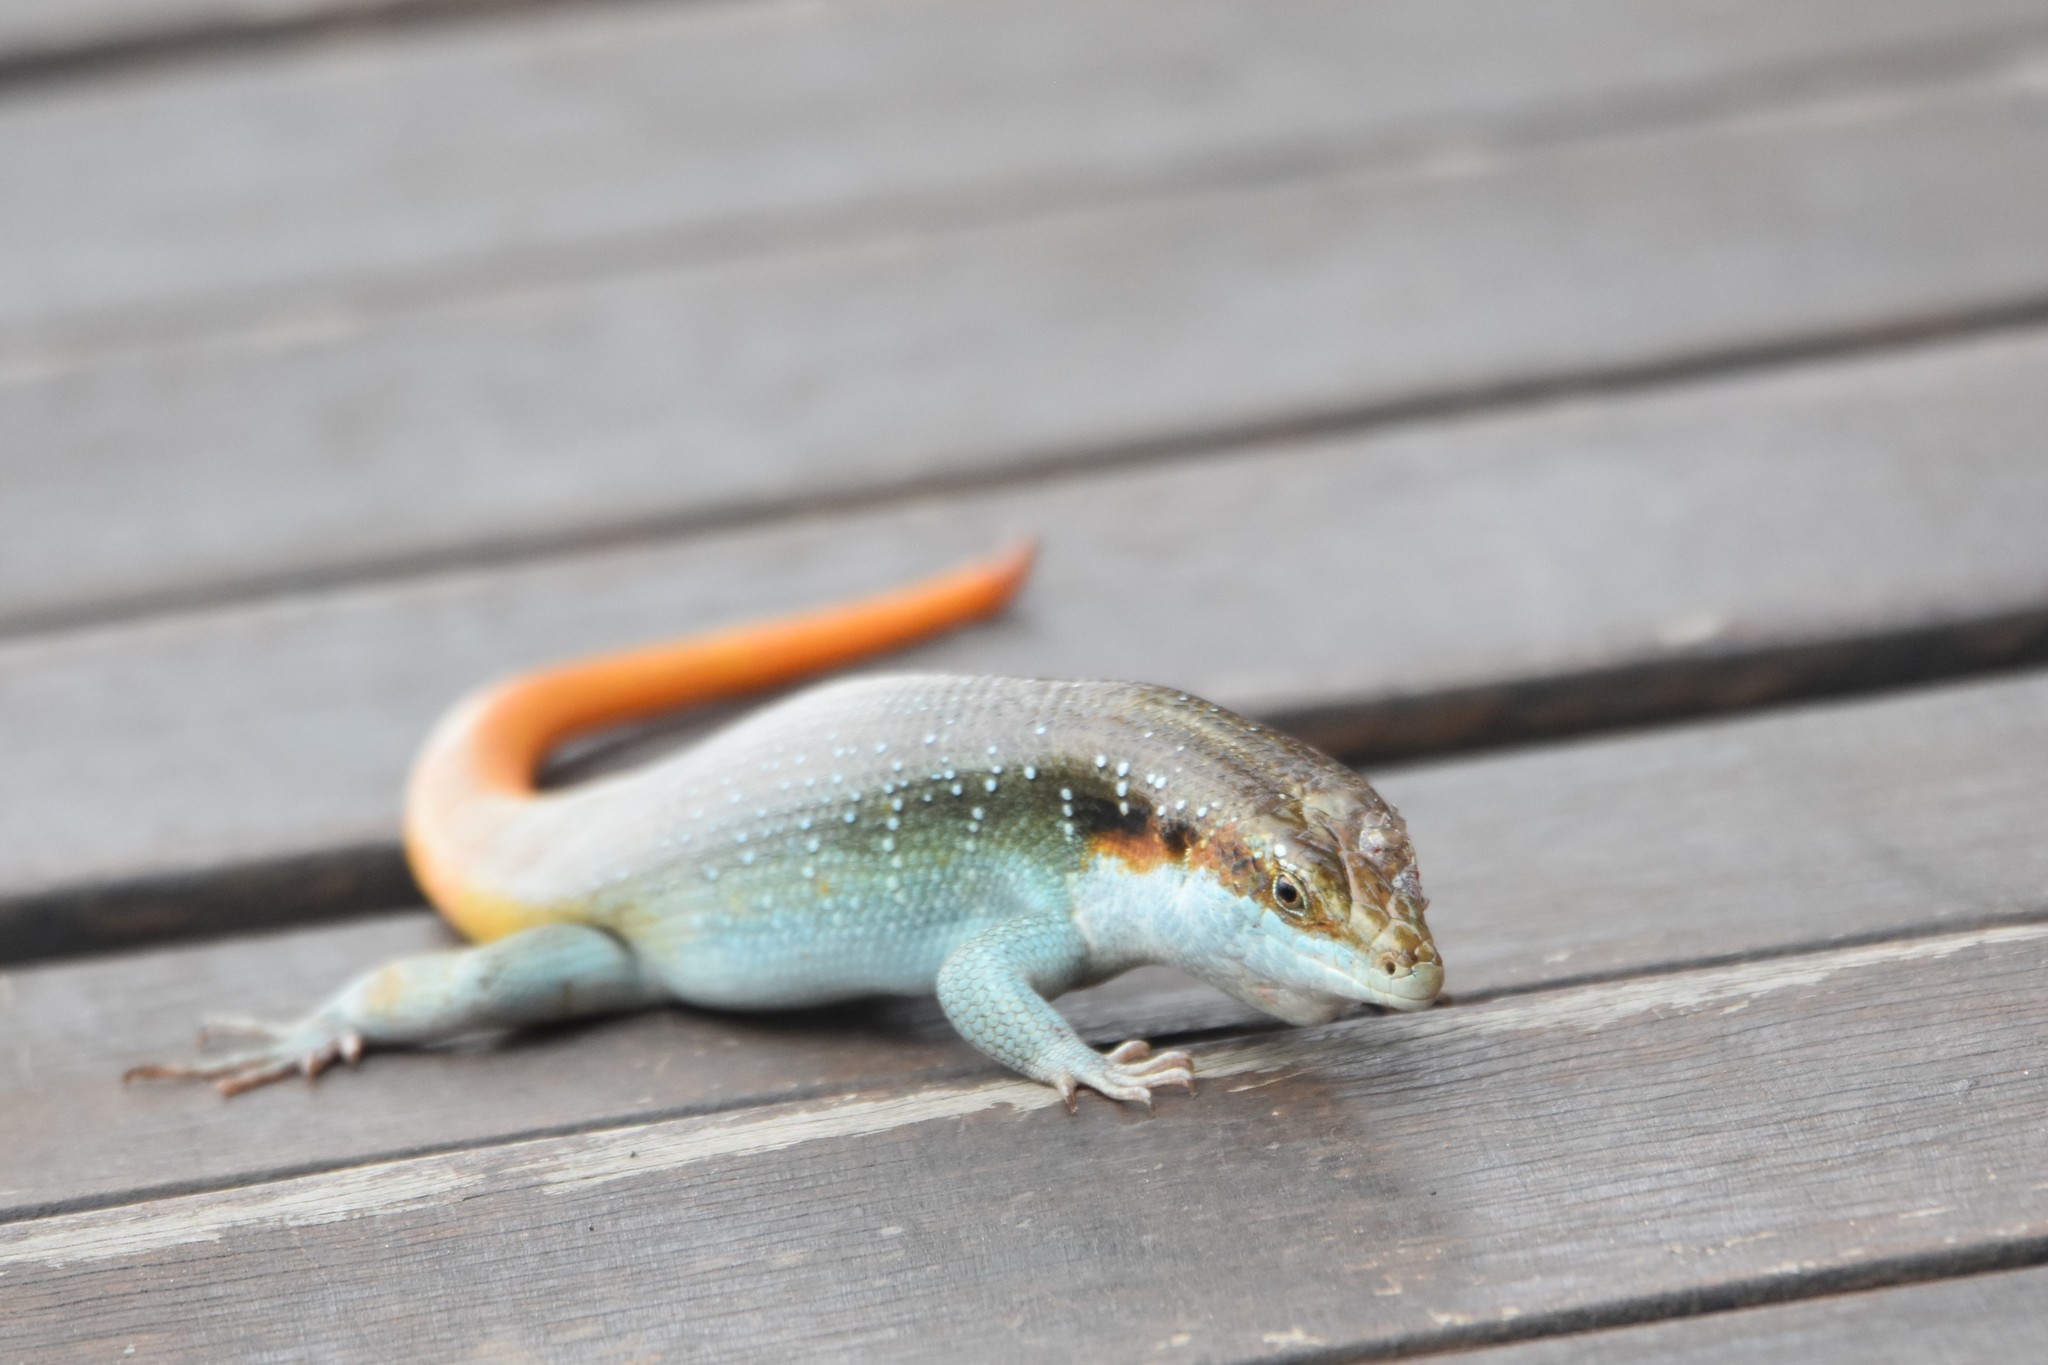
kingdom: Animalia
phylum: Chordata
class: Squamata
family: Scincidae
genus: Trachylepis
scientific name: Trachylepis margaritifera
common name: Rainbow skink
